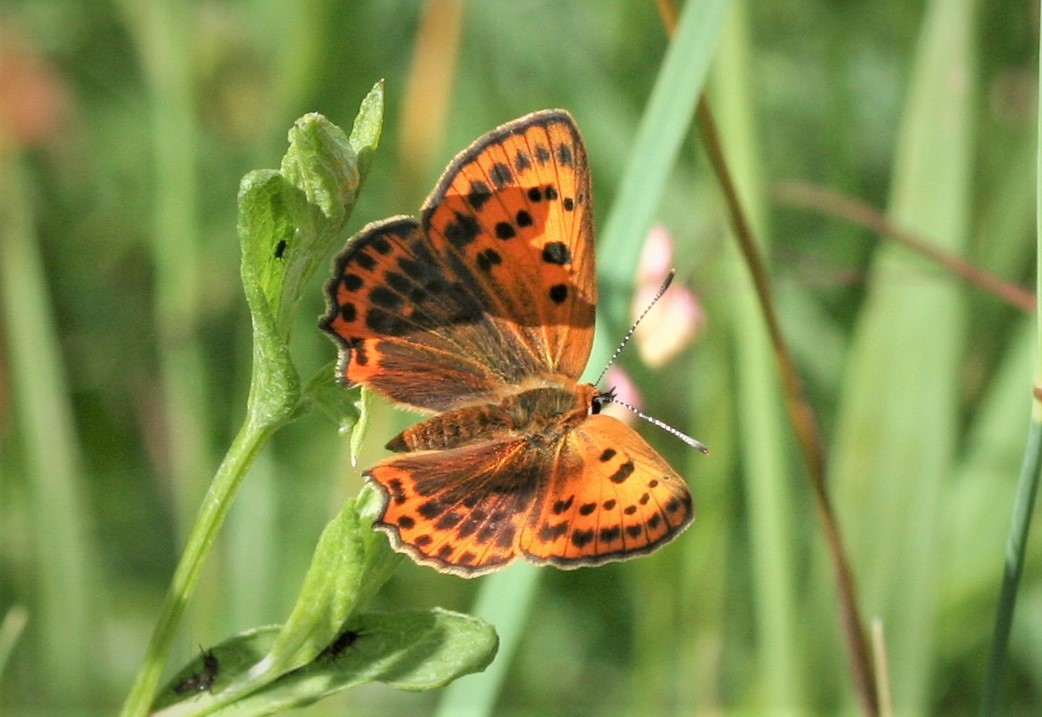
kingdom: Animalia
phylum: Arthropoda
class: Insecta
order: Lepidoptera
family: Lycaenidae
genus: Lycaena
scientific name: Lycaena virgaureae
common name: Scarce copper
